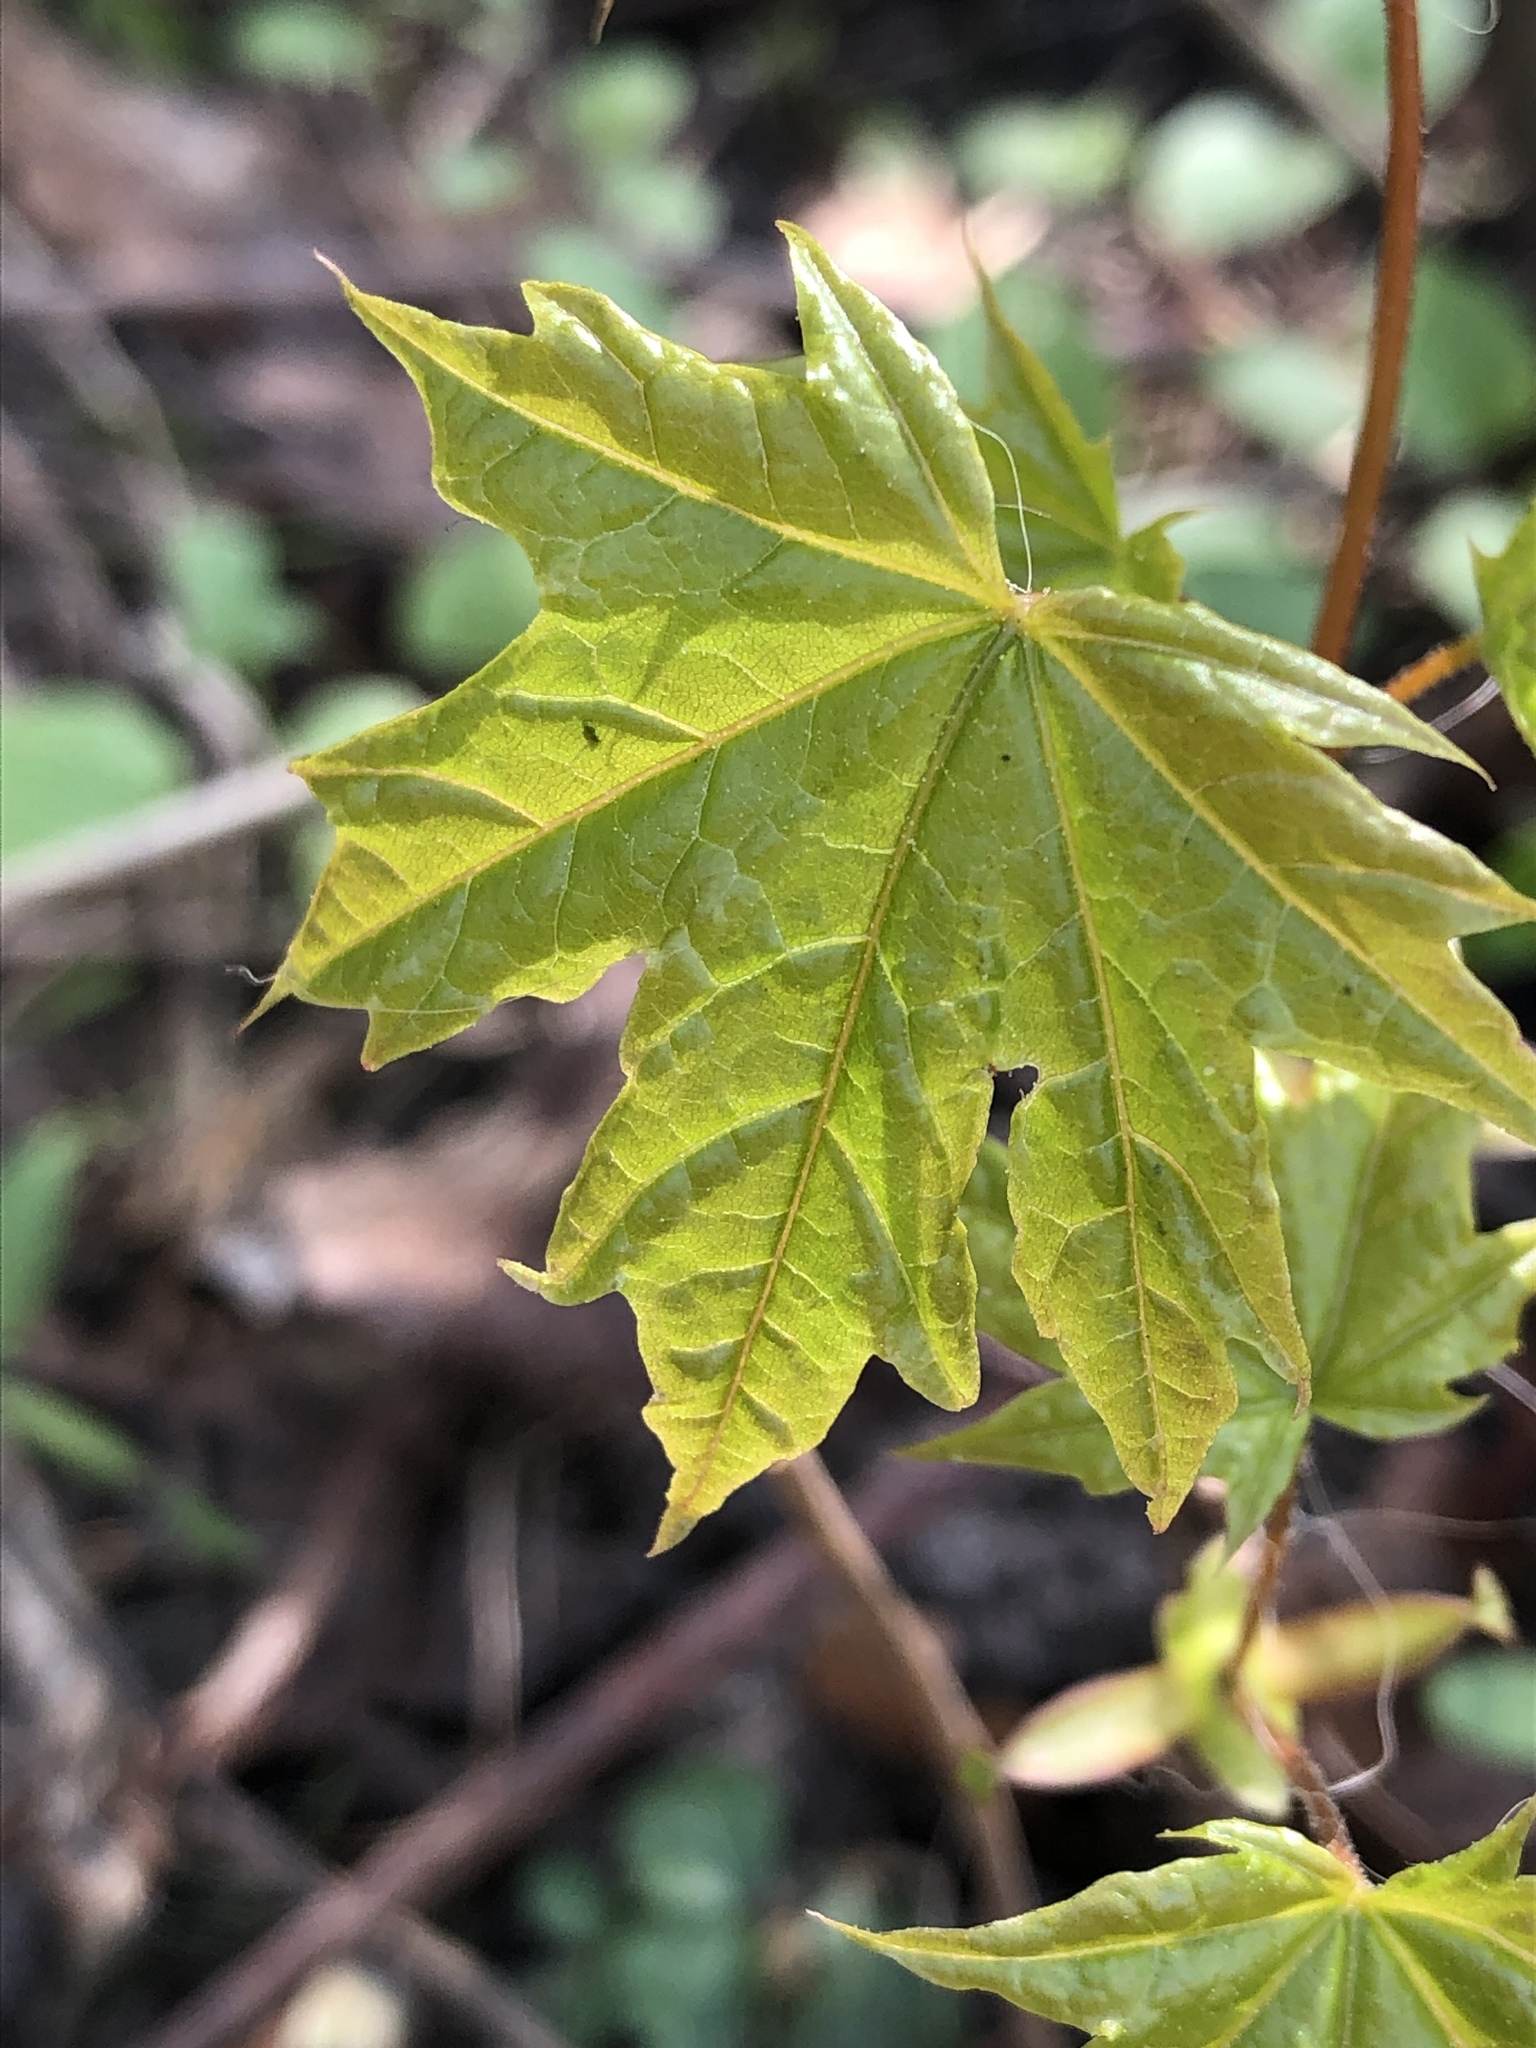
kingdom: Plantae
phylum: Tracheophyta
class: Magnoliopsida
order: Sapindales
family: Sapindaceae
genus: Acer
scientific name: Acer platanoides
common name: Norway maple
